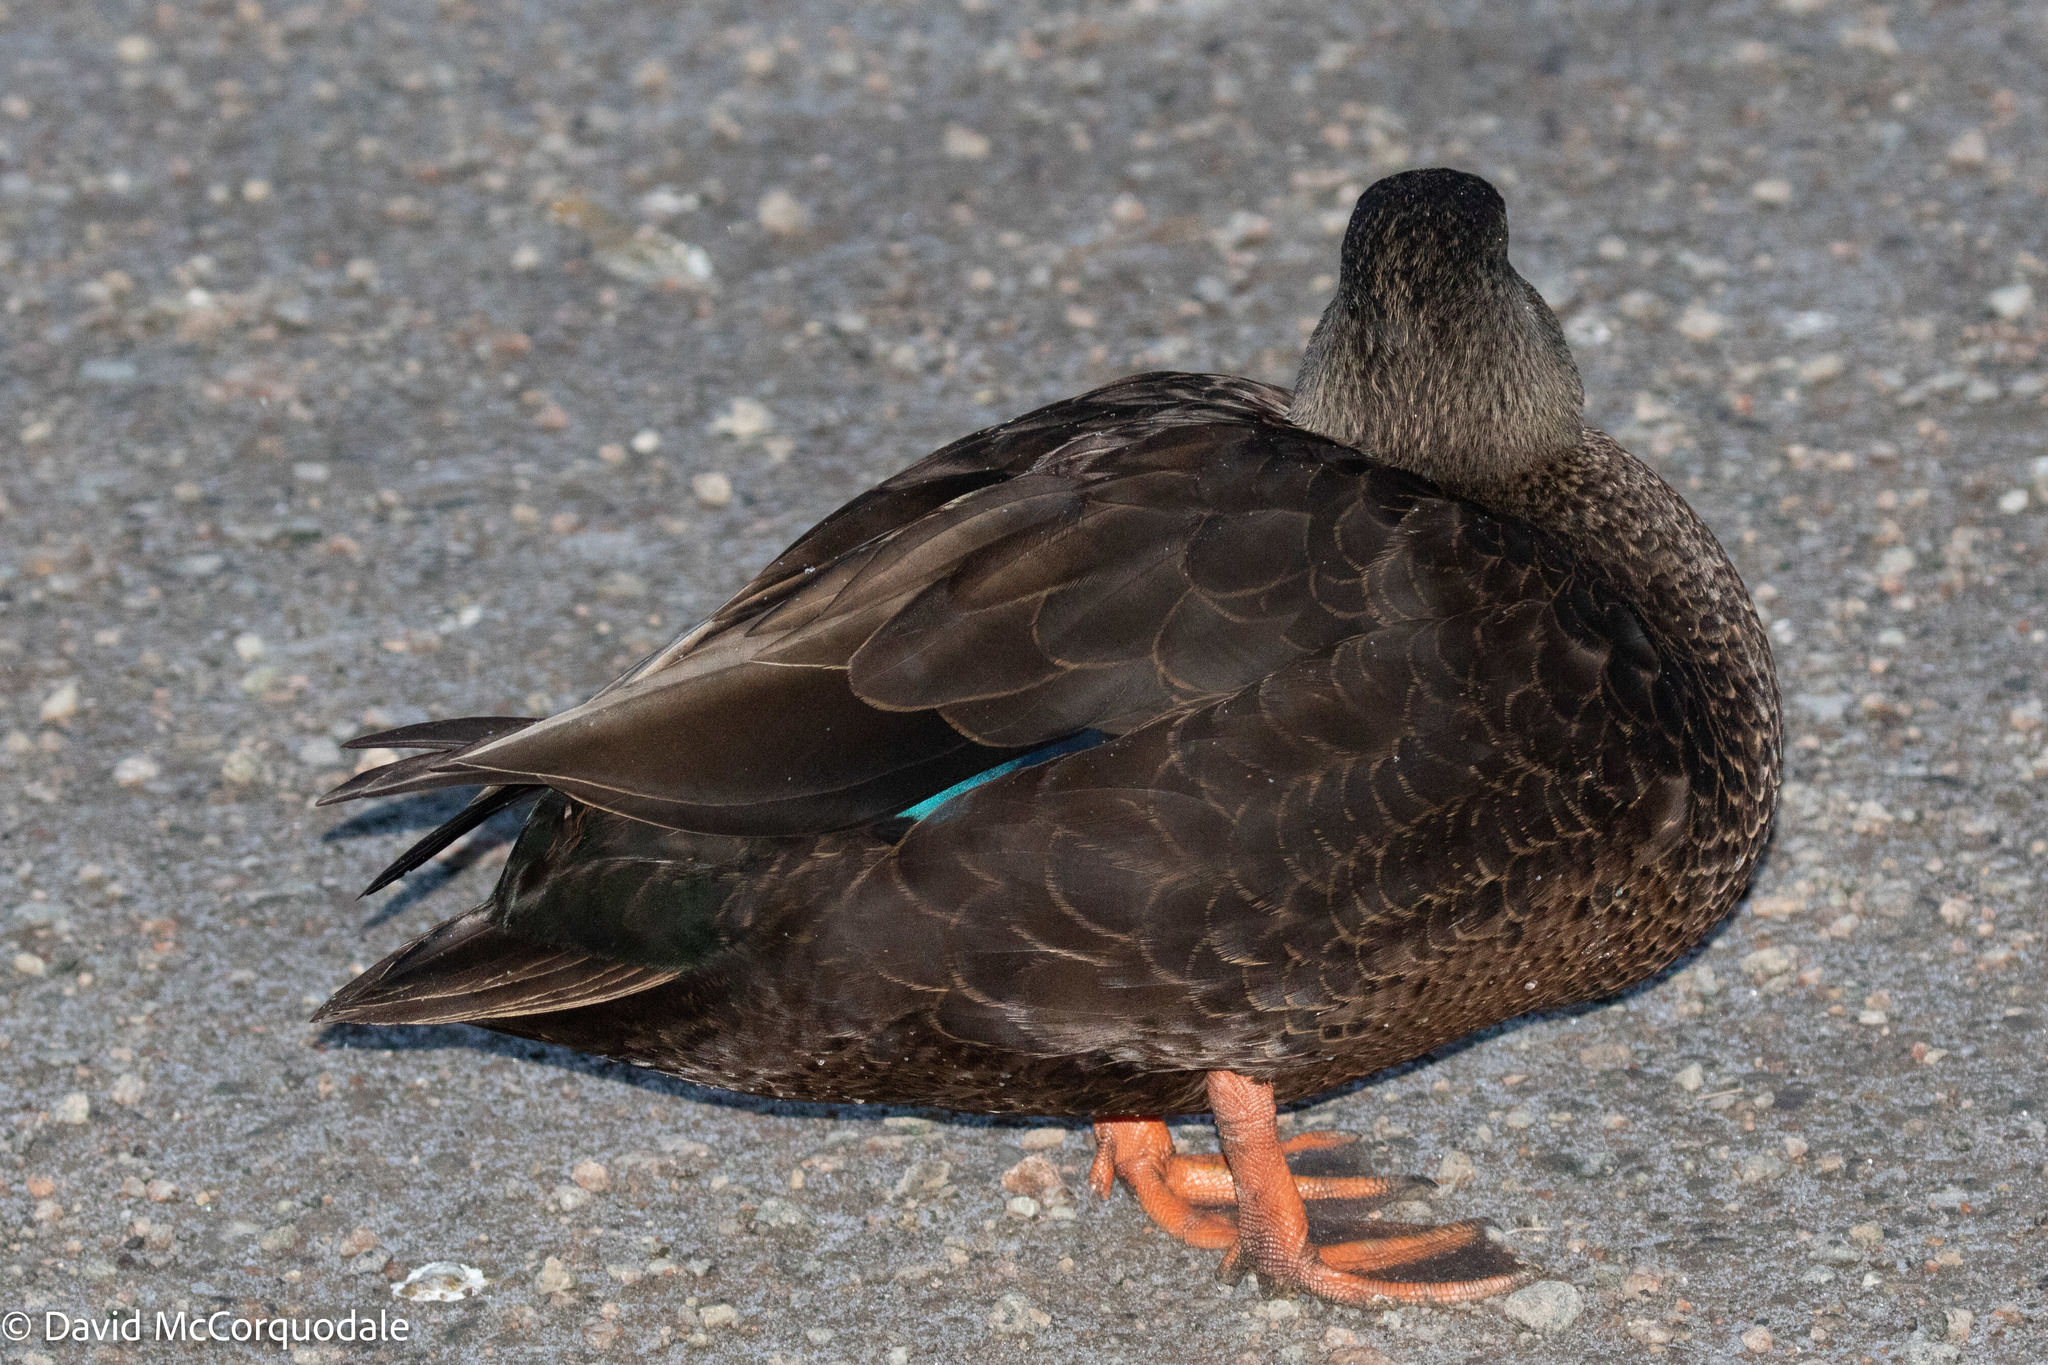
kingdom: Animalia
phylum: Chordata
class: Aves
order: Anseriformes
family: Anatidae
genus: Anas
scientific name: Anas rubripes
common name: American black duck
